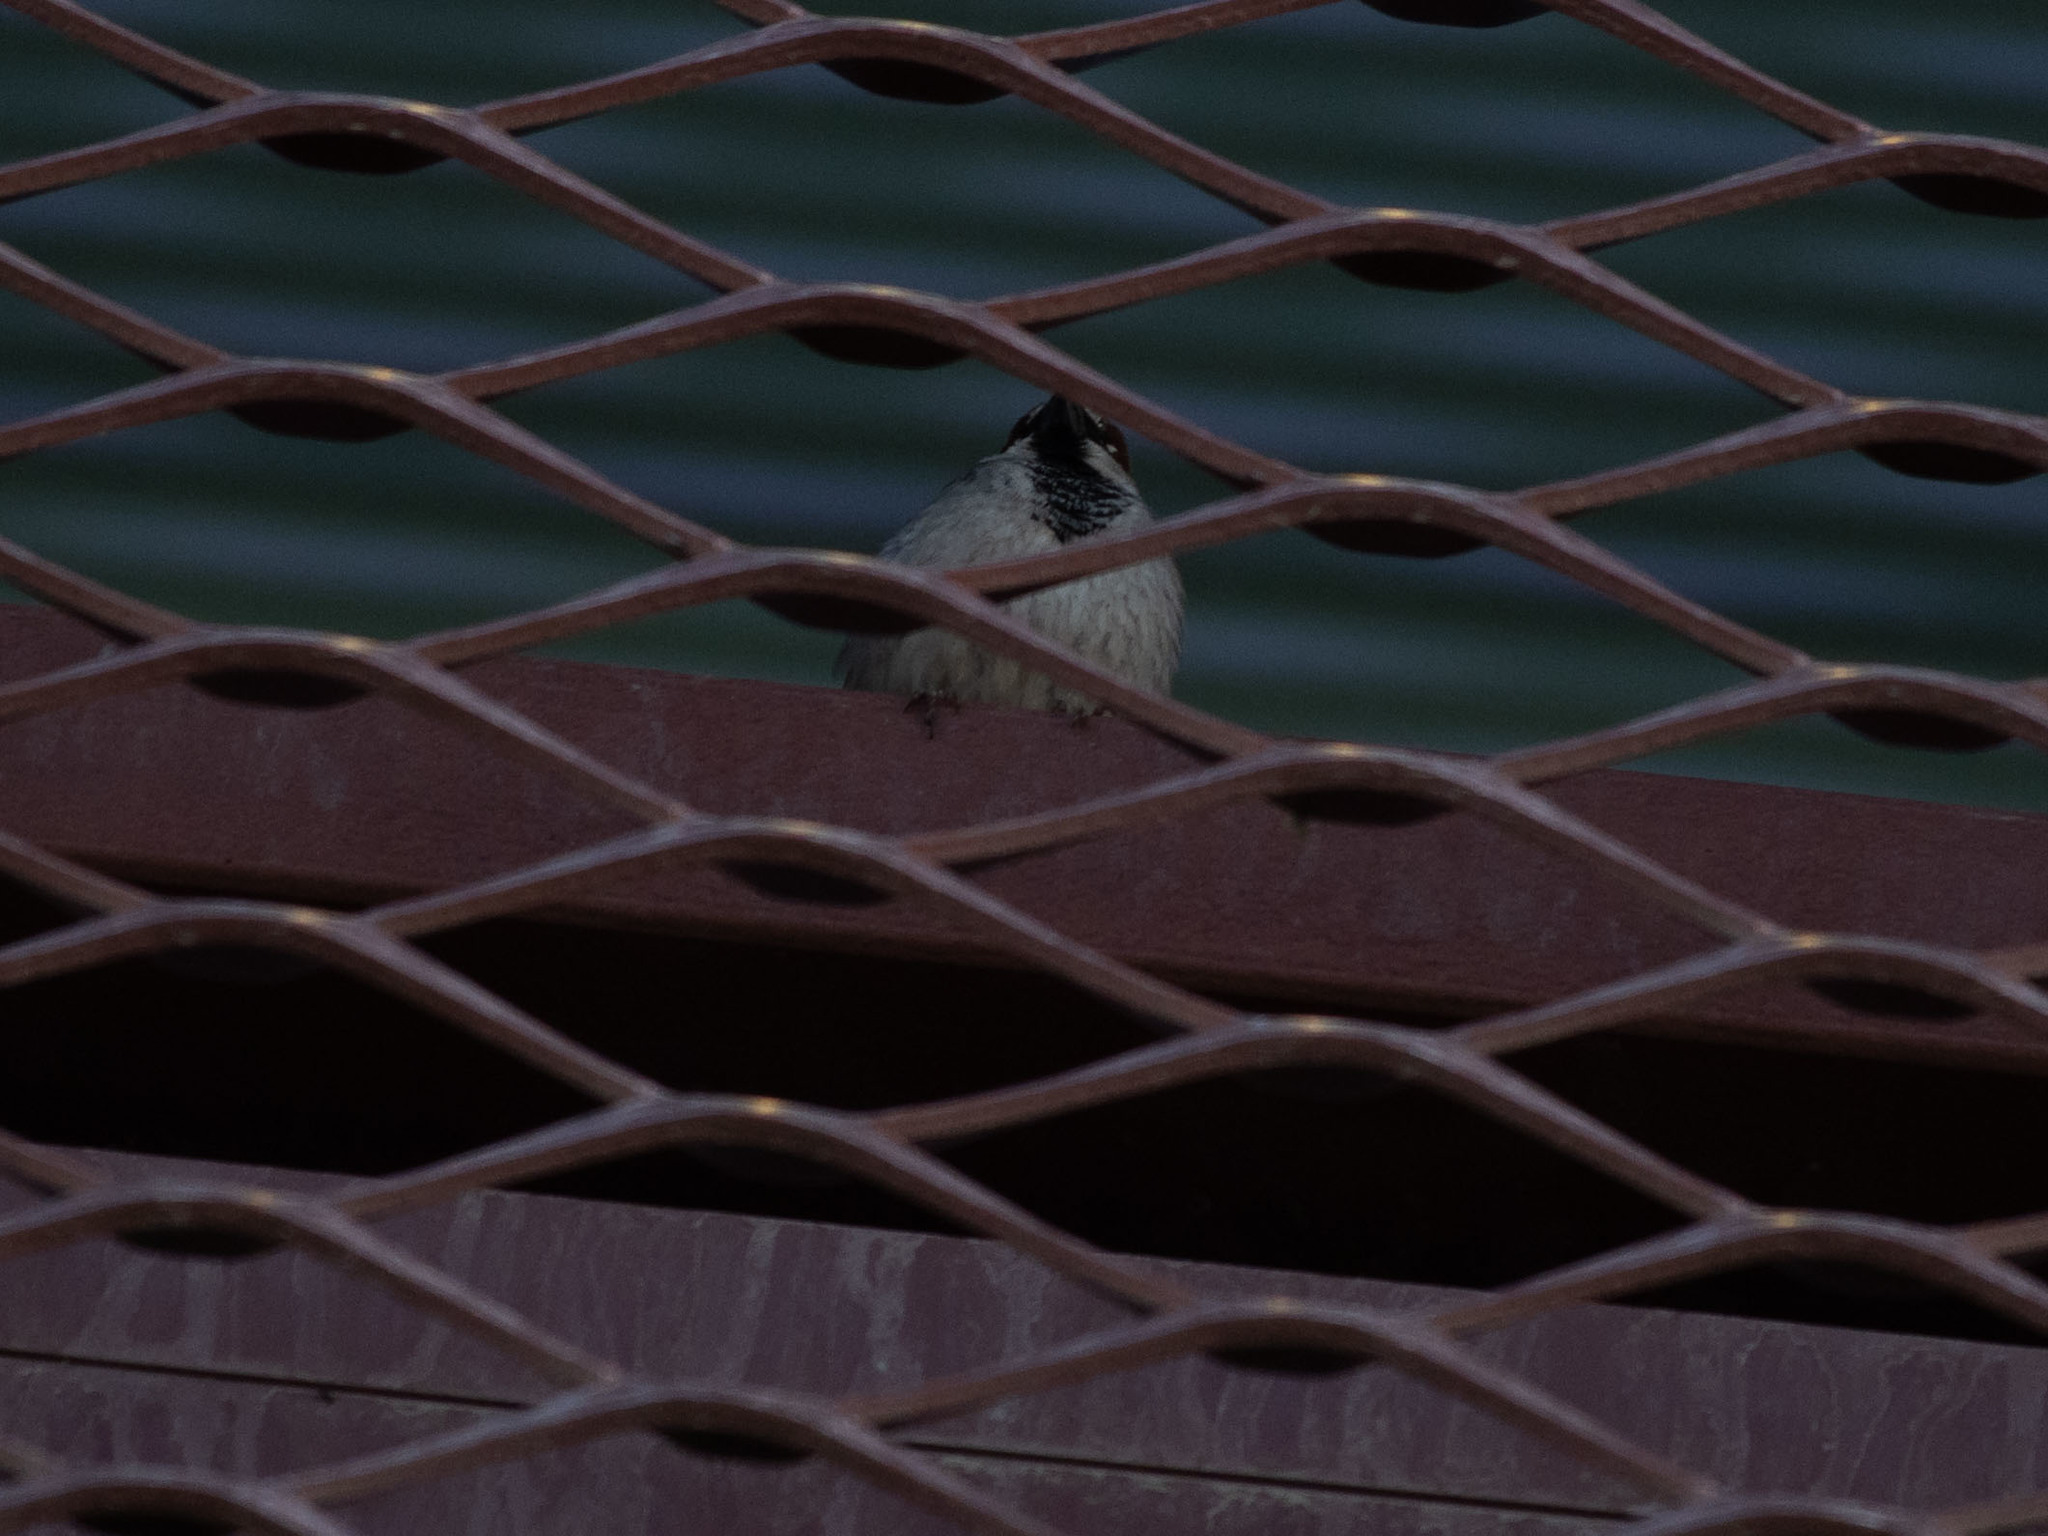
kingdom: Animalia
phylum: Chordata
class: Aves
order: Passeriformes
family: Passeridae
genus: Passer
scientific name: Passer domesticus
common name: House sparrow
